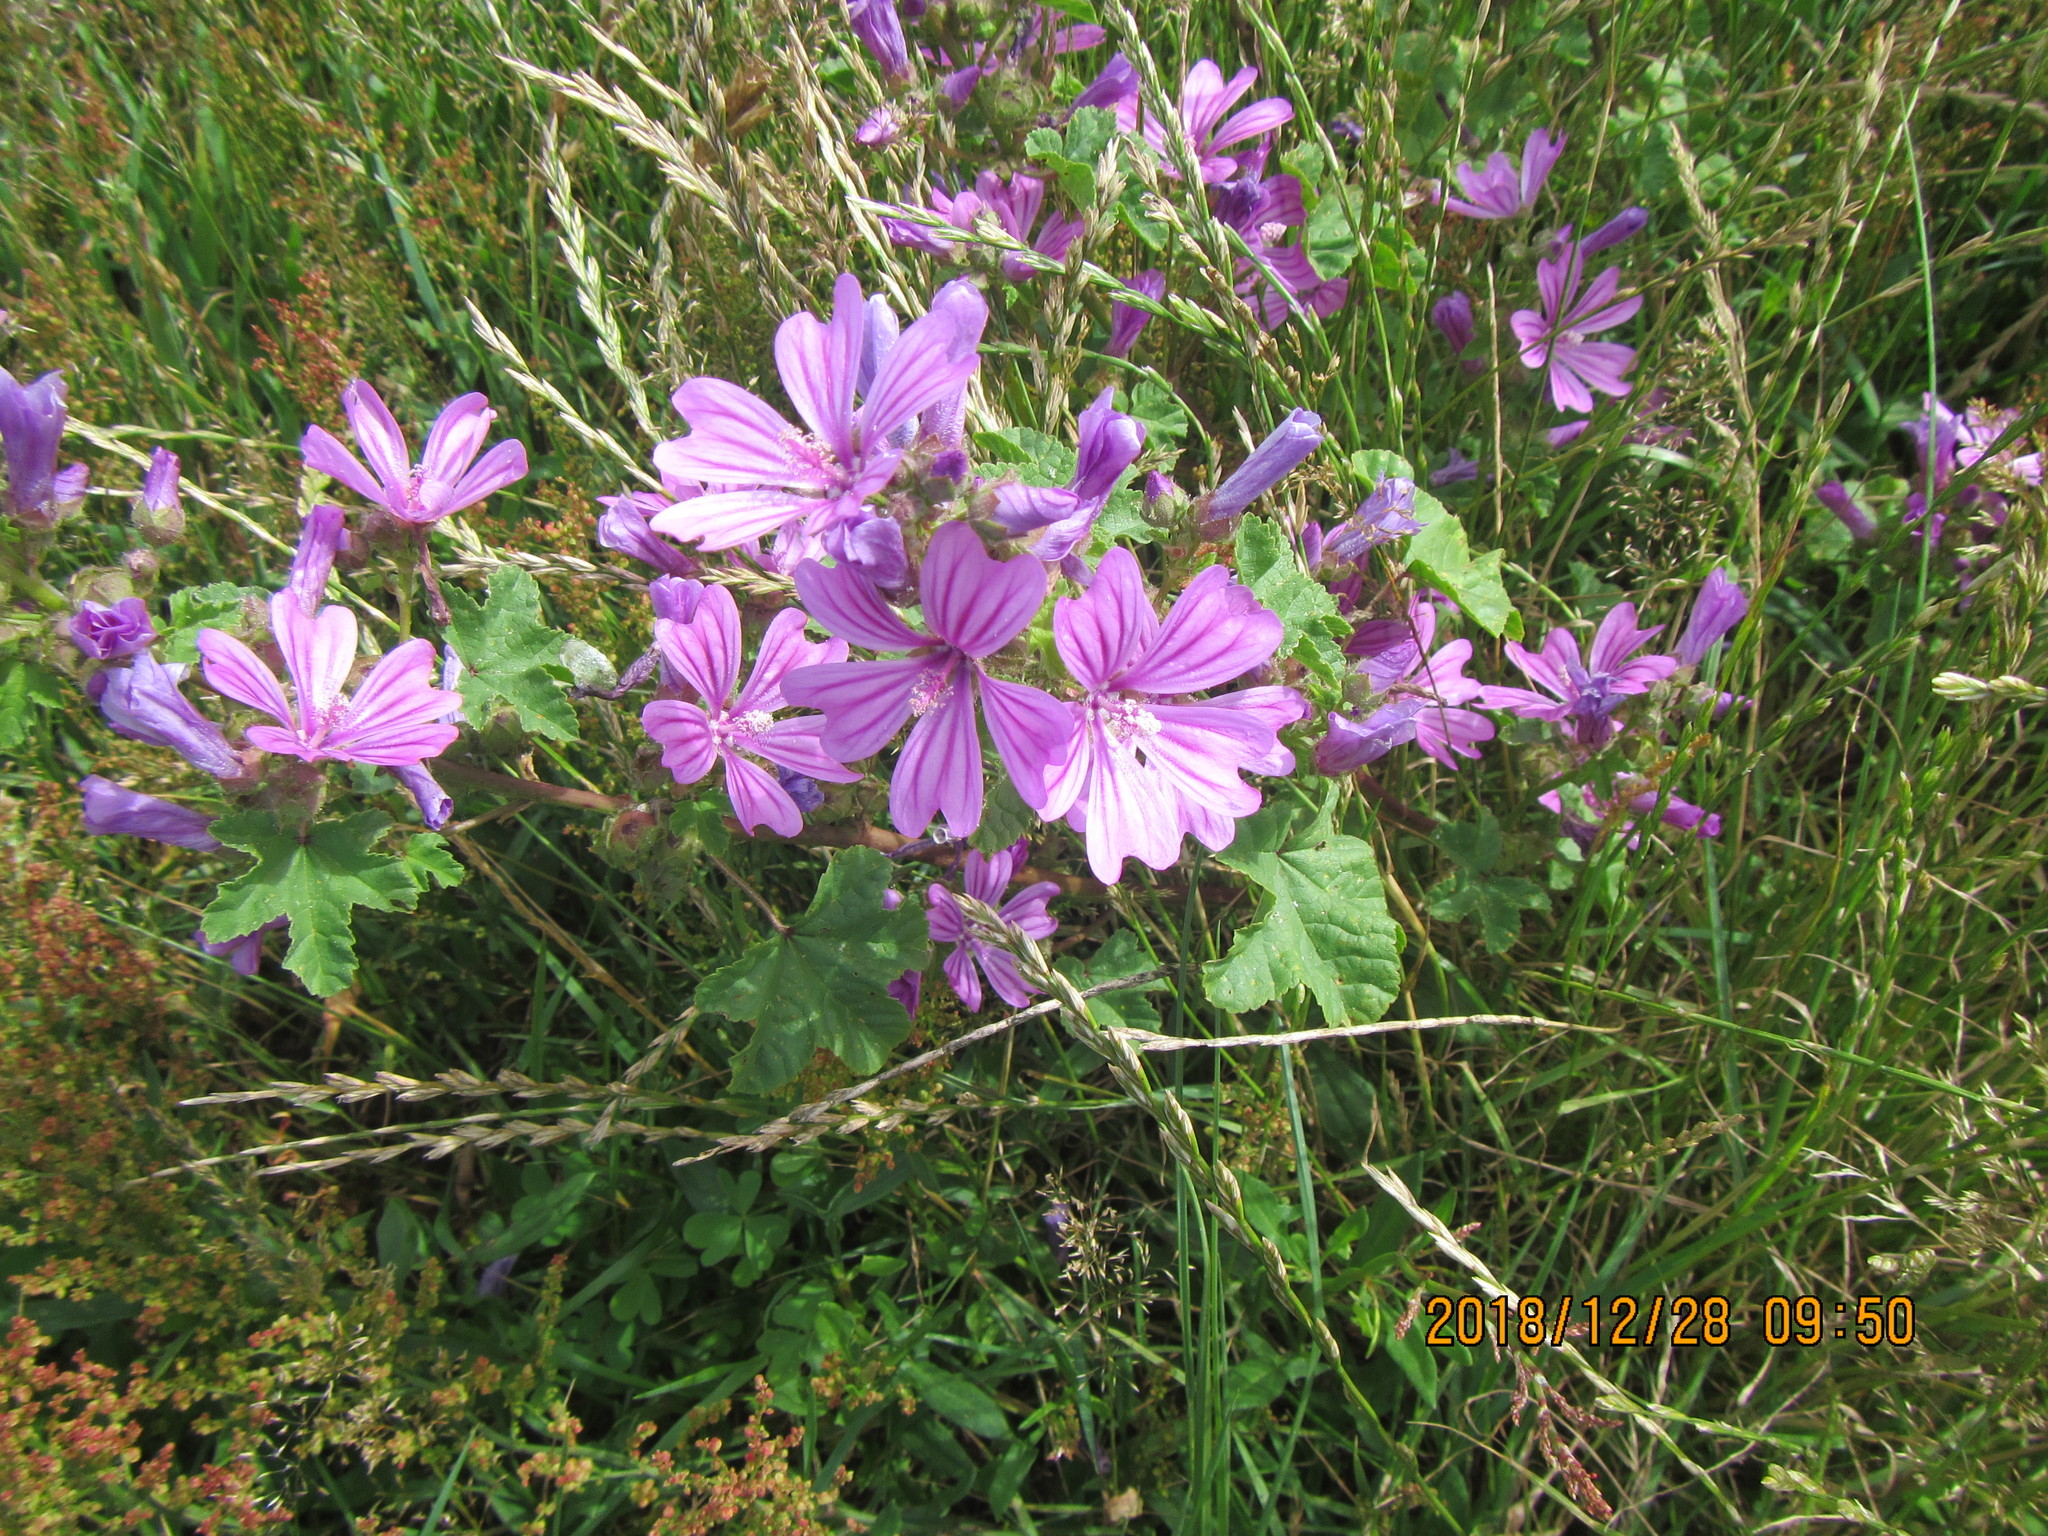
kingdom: Plantae
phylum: Tracheophyta
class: Magnoliopsida
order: Malvales
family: Malvaceae
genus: Malva
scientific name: Malva sylvestris
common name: Common mallow
